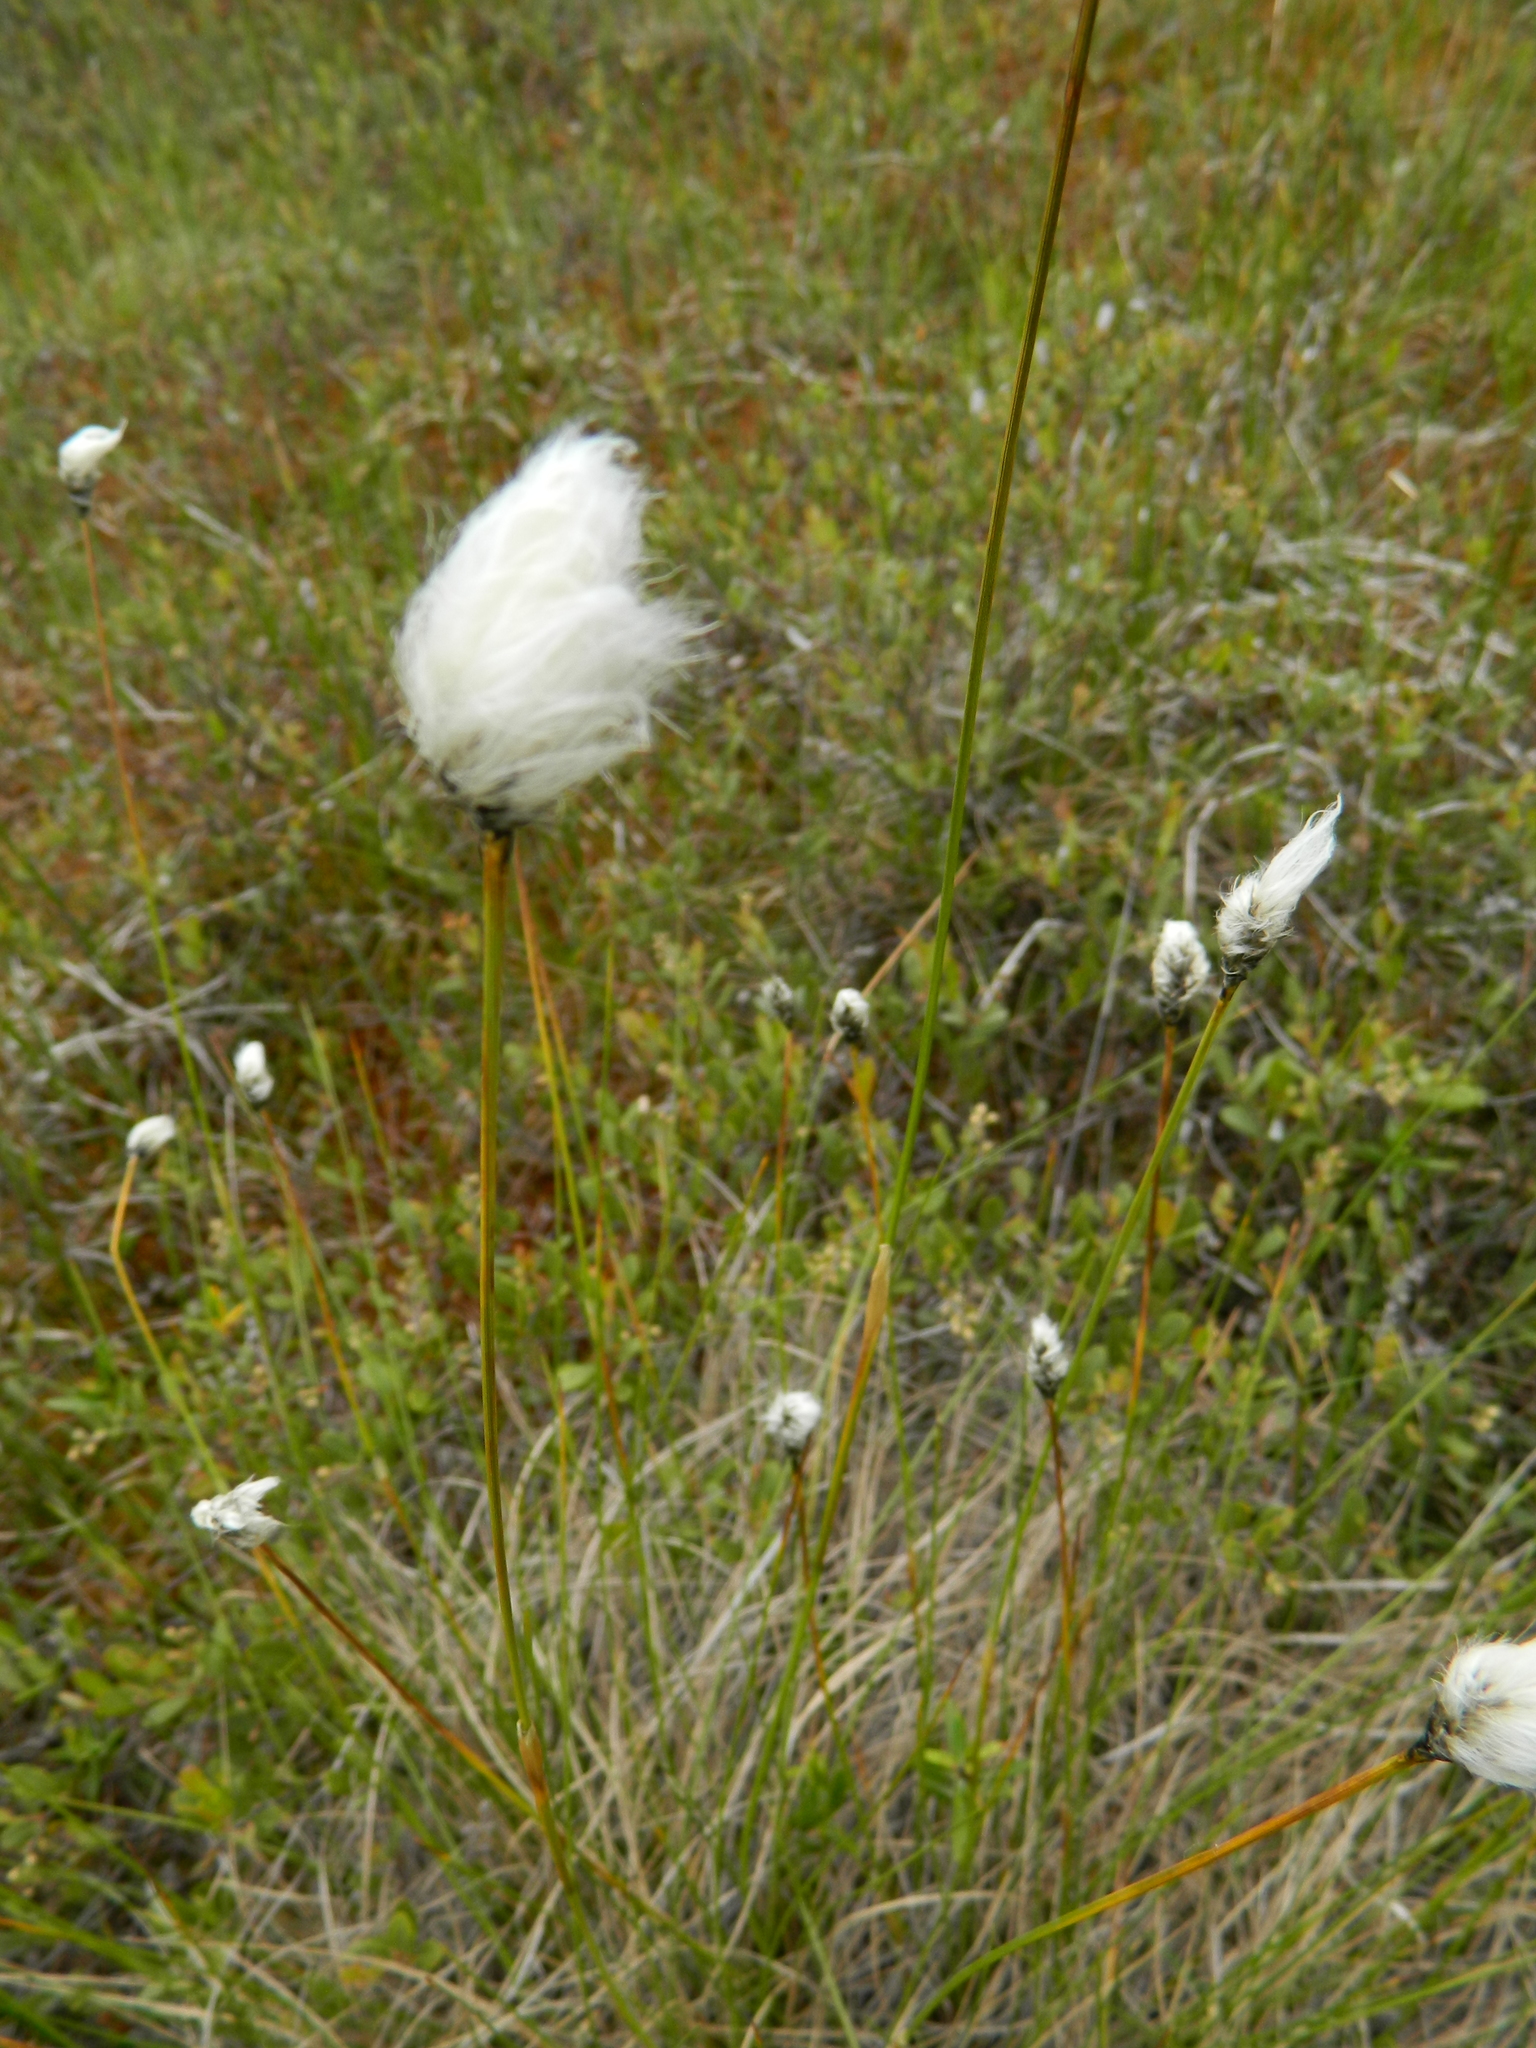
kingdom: Plantae
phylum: Tracheophyta
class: Liliopsida
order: Poales
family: Cyperaceae
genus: Eriophorum
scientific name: Eriophorum vaginatum
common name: Hare's-tail cottongrass
